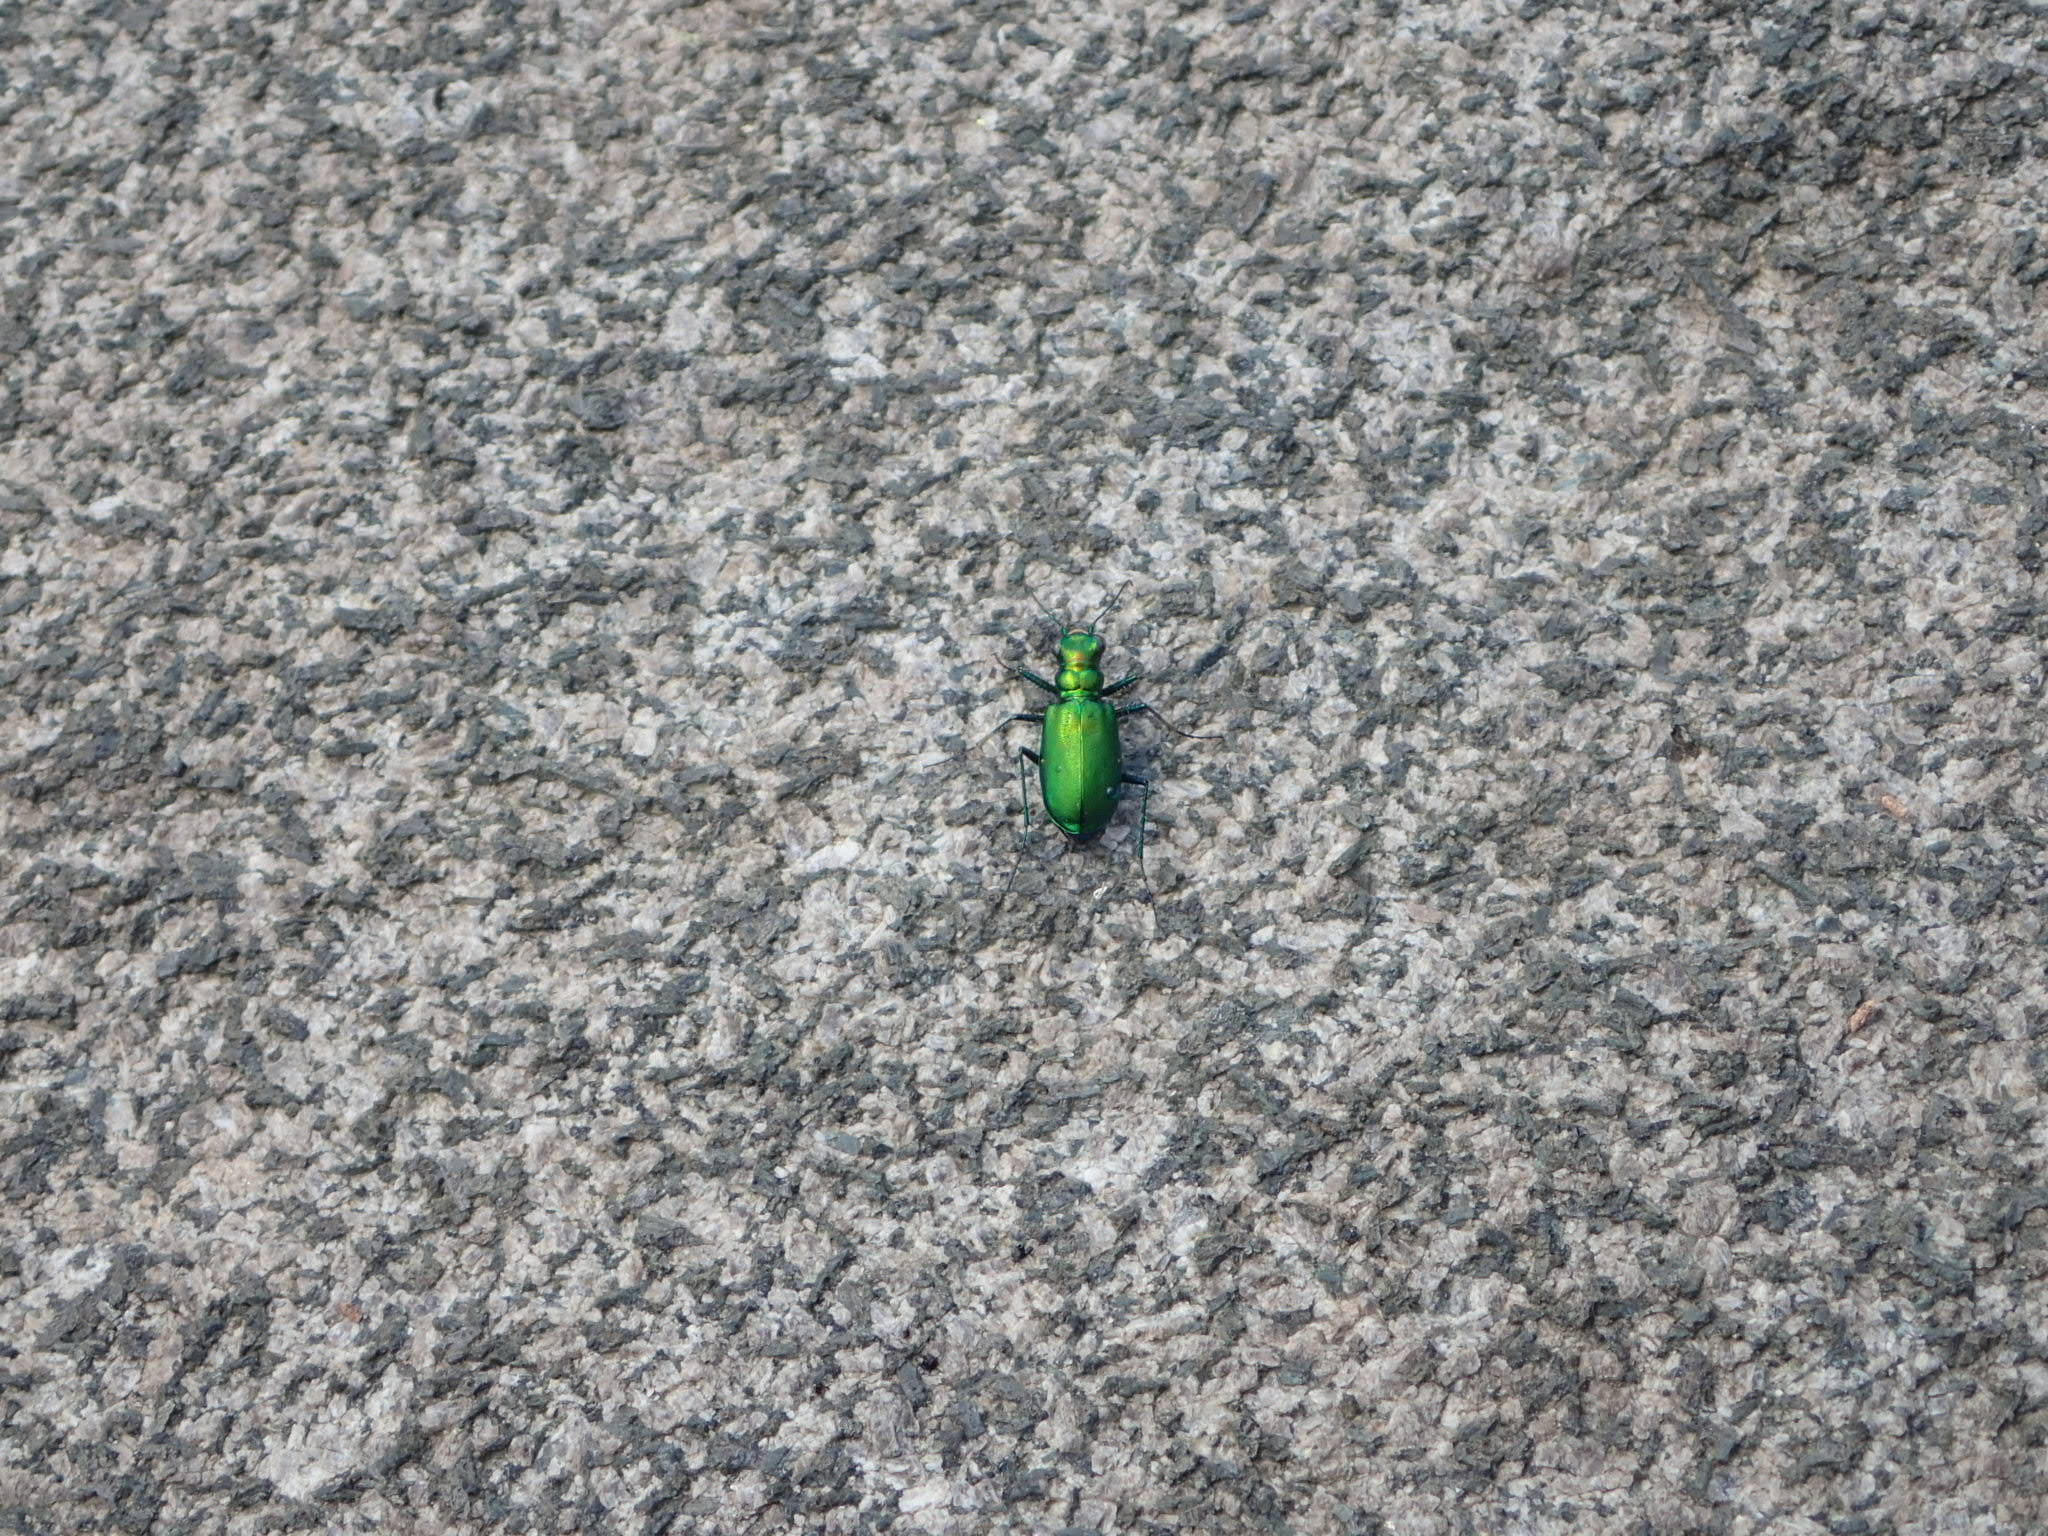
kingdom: Animalia
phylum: Arthropoda
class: Insecta
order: Coleoptera
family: Carabidae
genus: Cicindela
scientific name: Cicindela denikei
